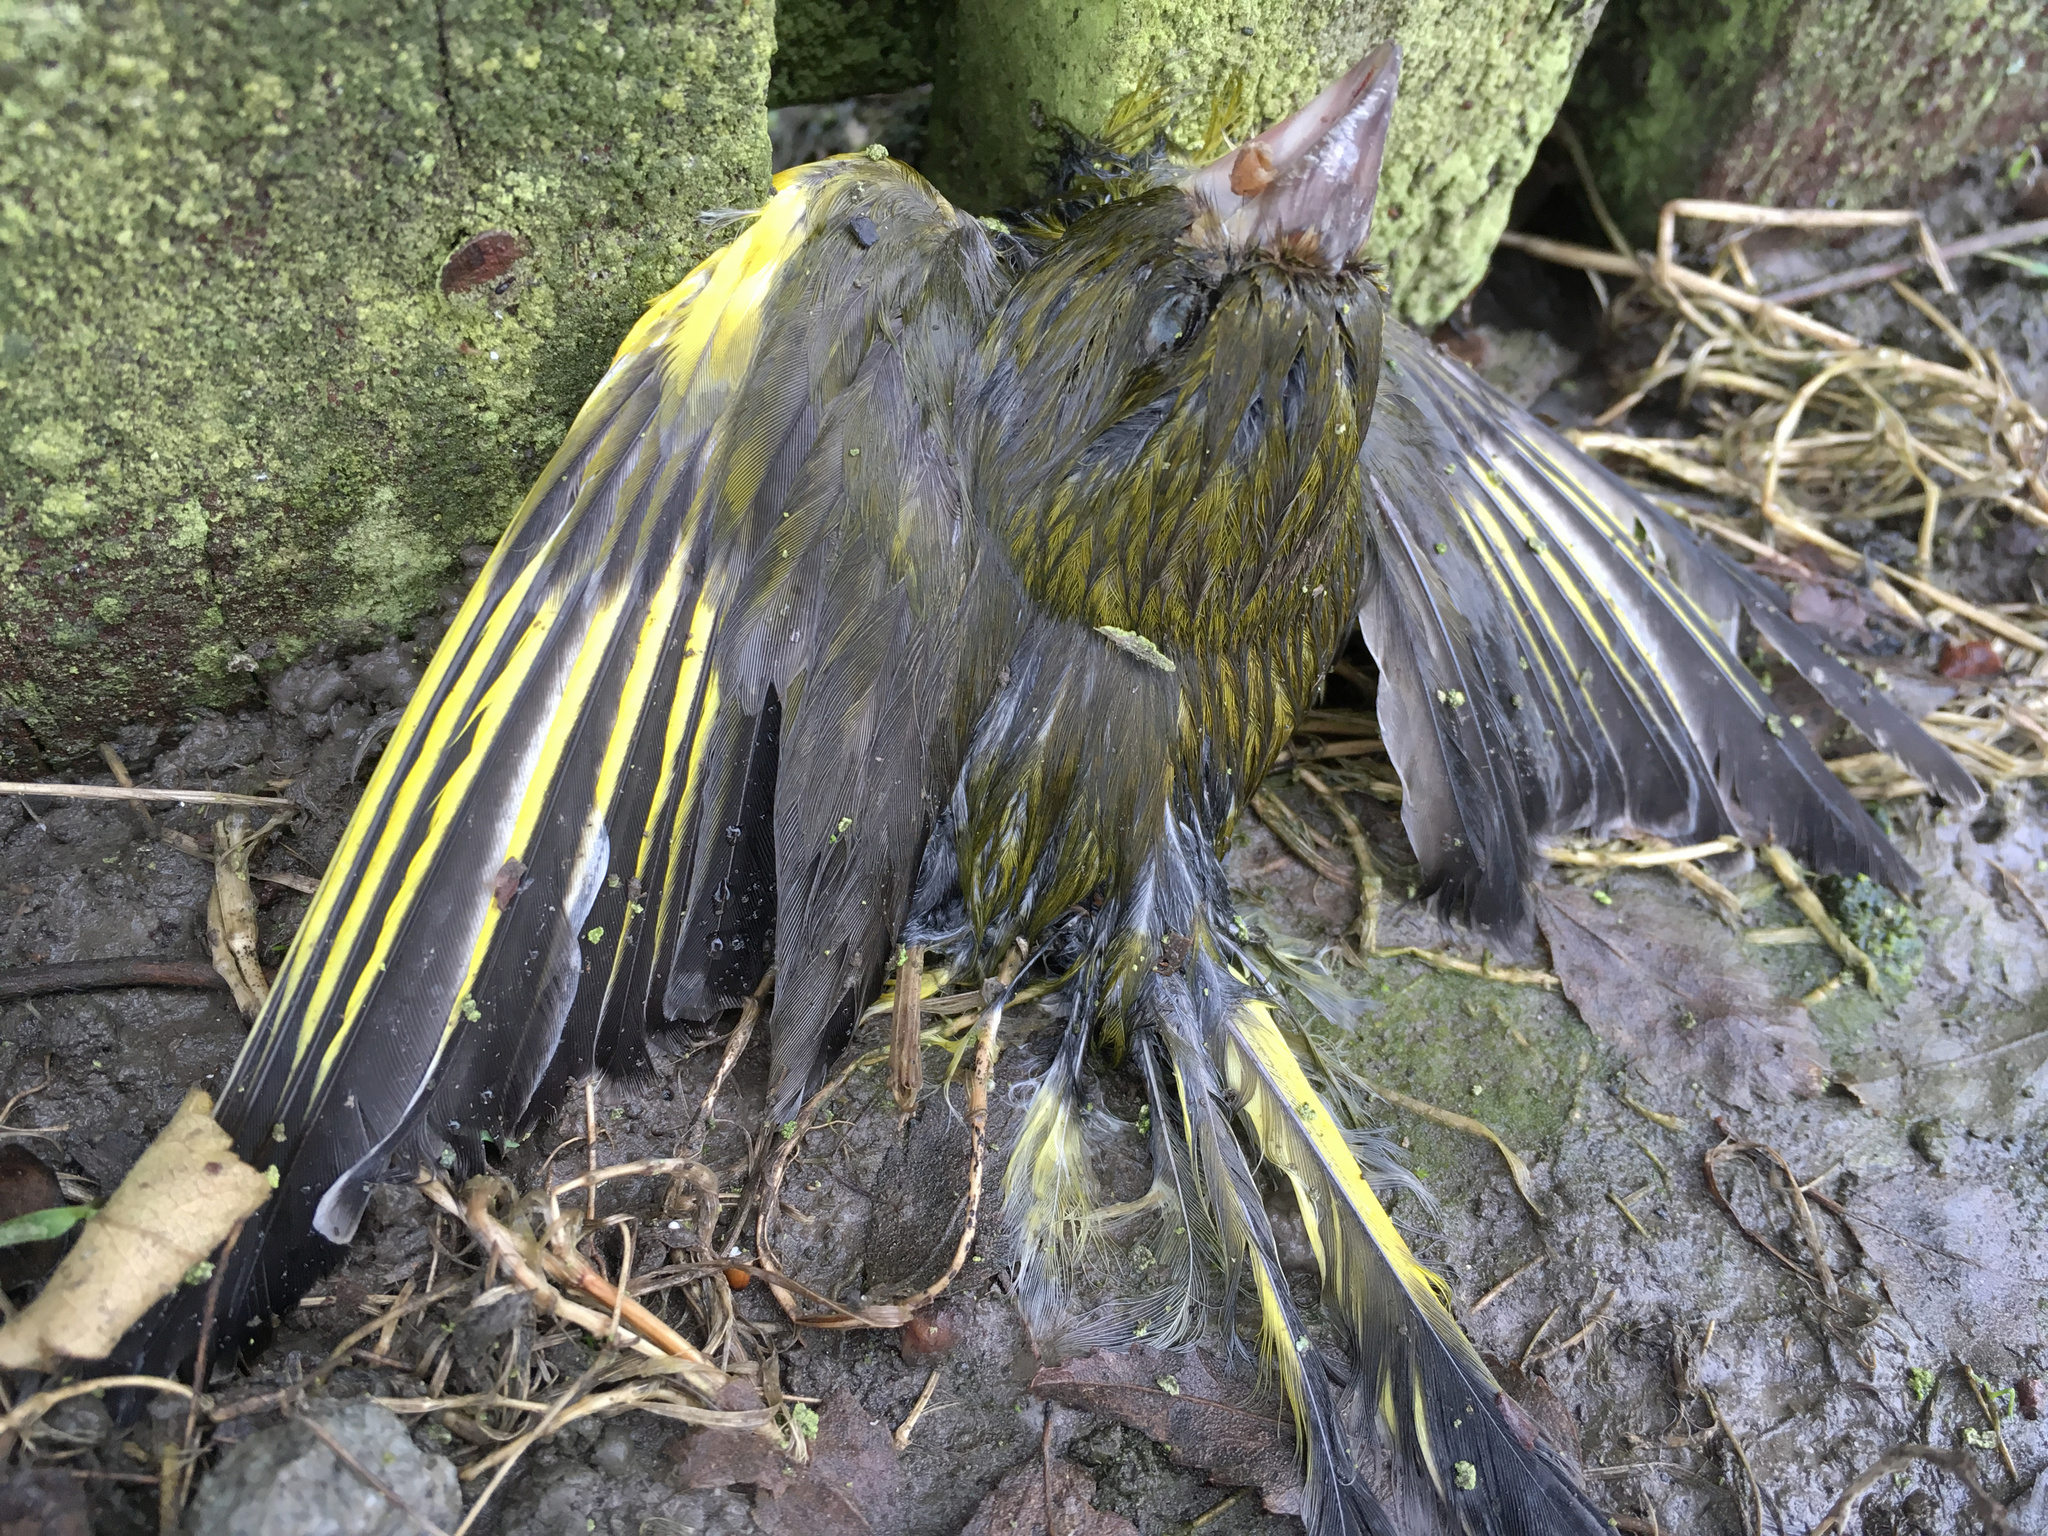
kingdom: Plantae
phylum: Tracheophyta
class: Liliopsida
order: Poales
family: Poaceae
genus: Chloris
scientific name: Chloris chloris
